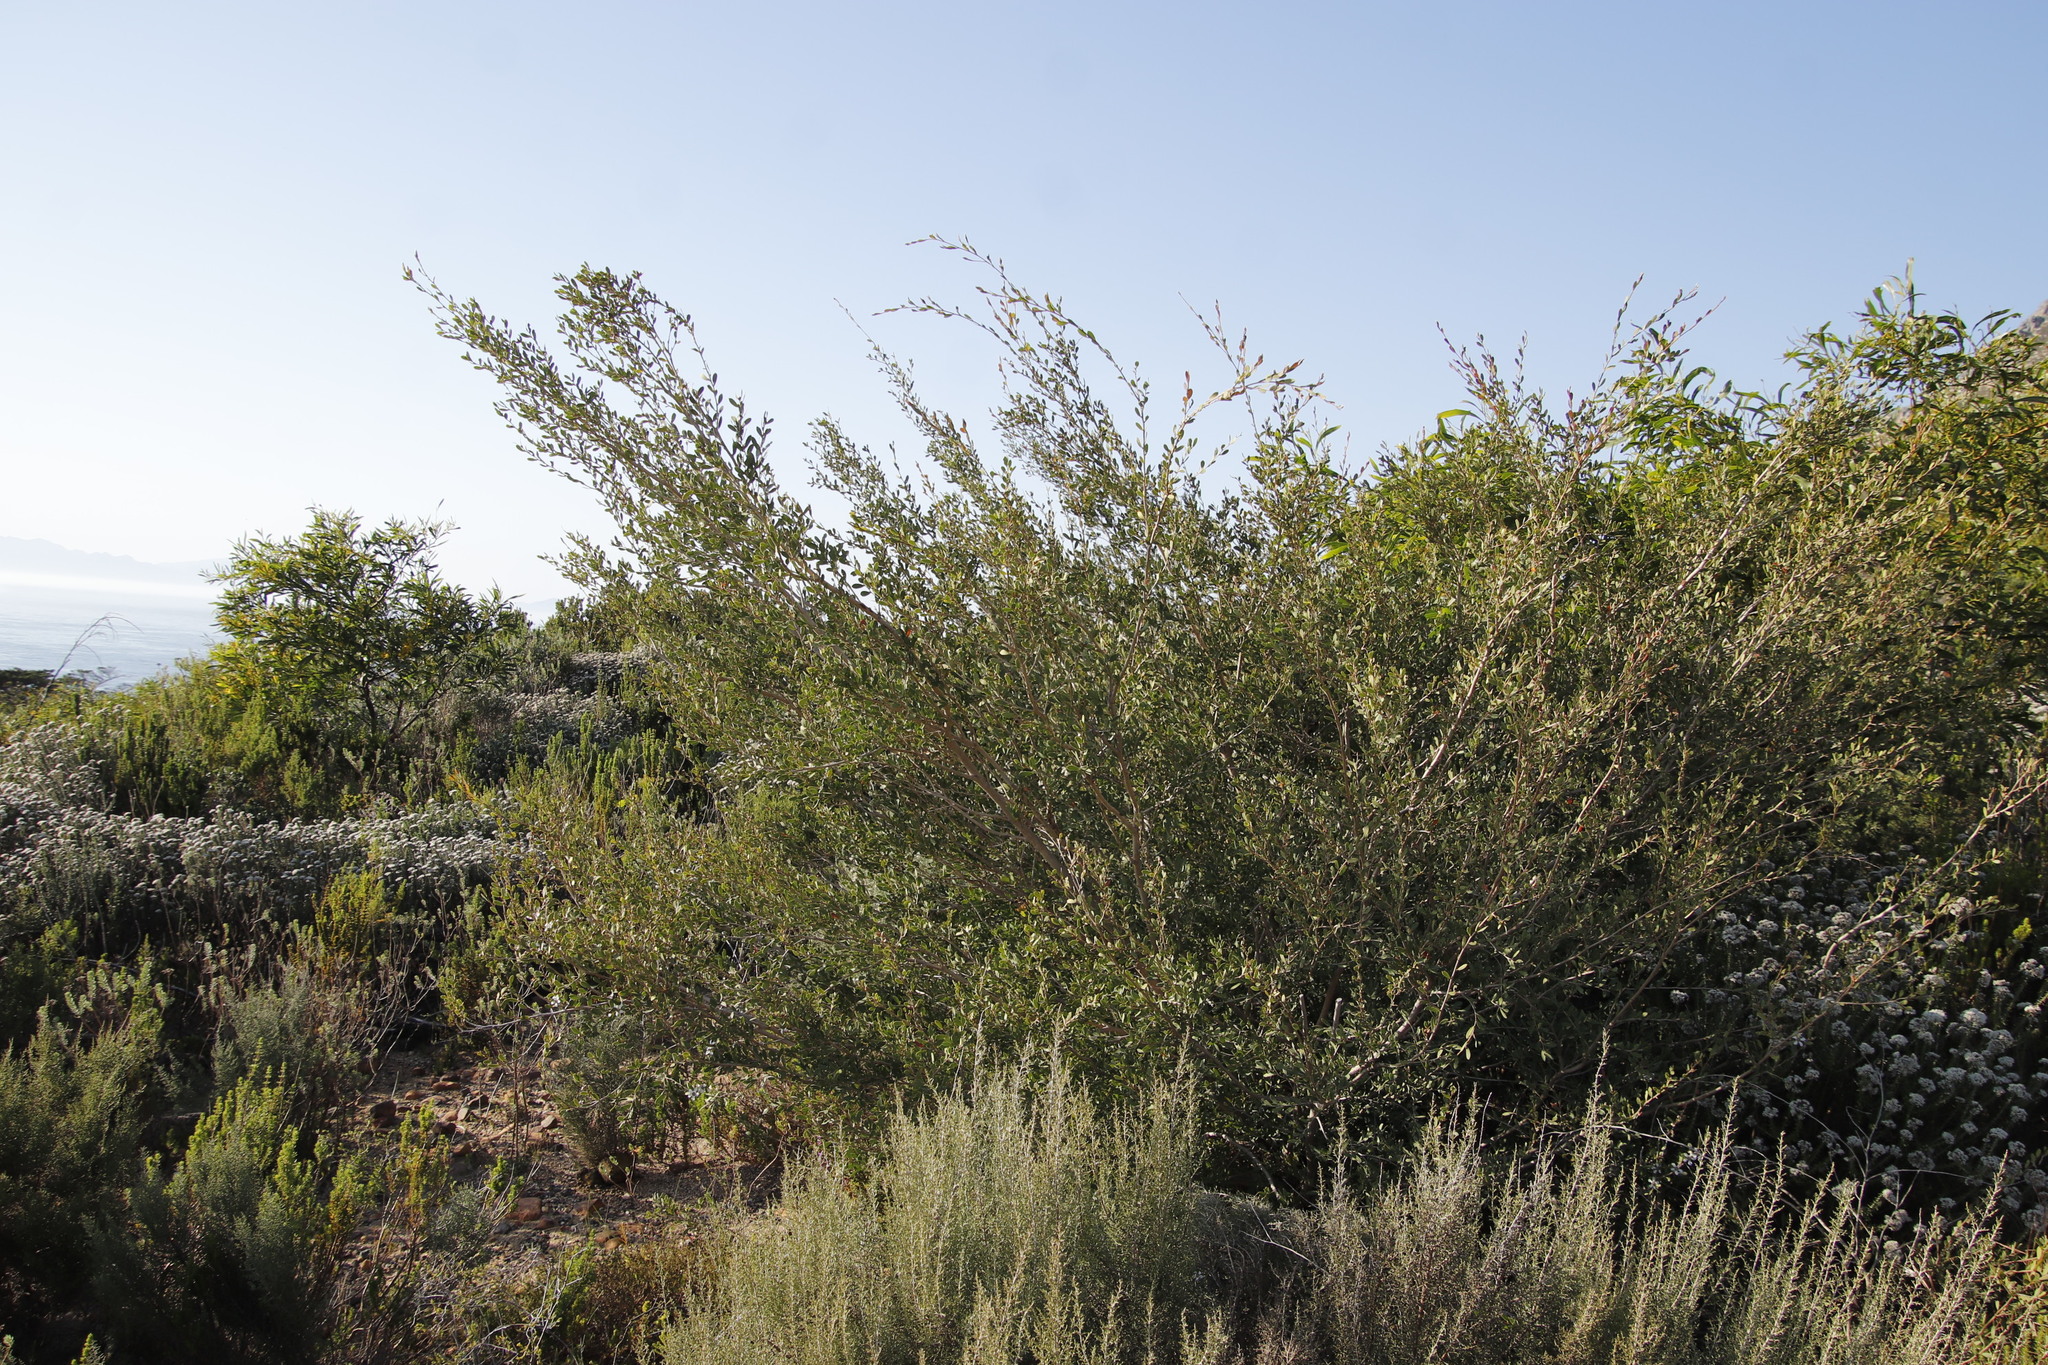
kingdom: Plantae
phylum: Tracheophyta
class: Magnoliopsida
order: Myrtales
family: Myrtaceae
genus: Leptospermum
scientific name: Leptospermum laevigatum
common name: Australian teatree
